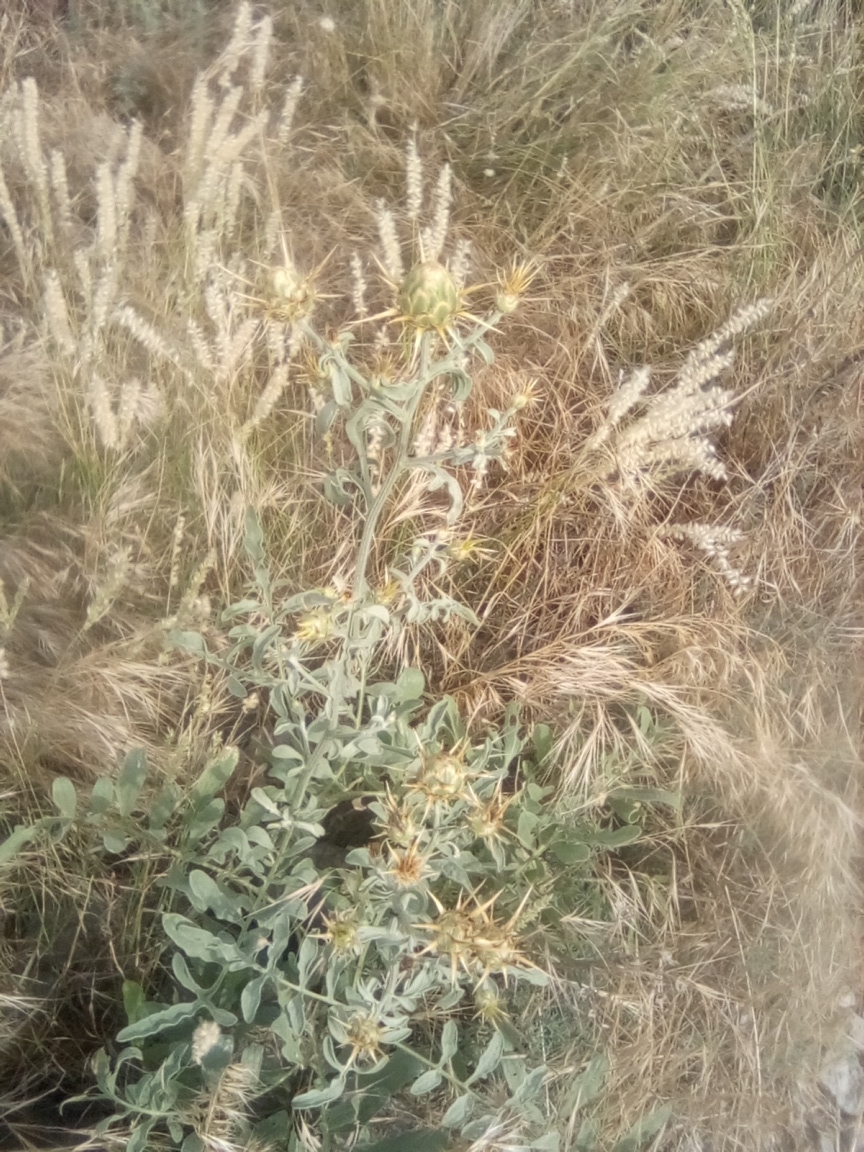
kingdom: Plantae
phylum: Tracheophyta
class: Magnoliopsida
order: Asterales
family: Asteraceae
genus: Centaurea
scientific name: Centaurea salonitana
